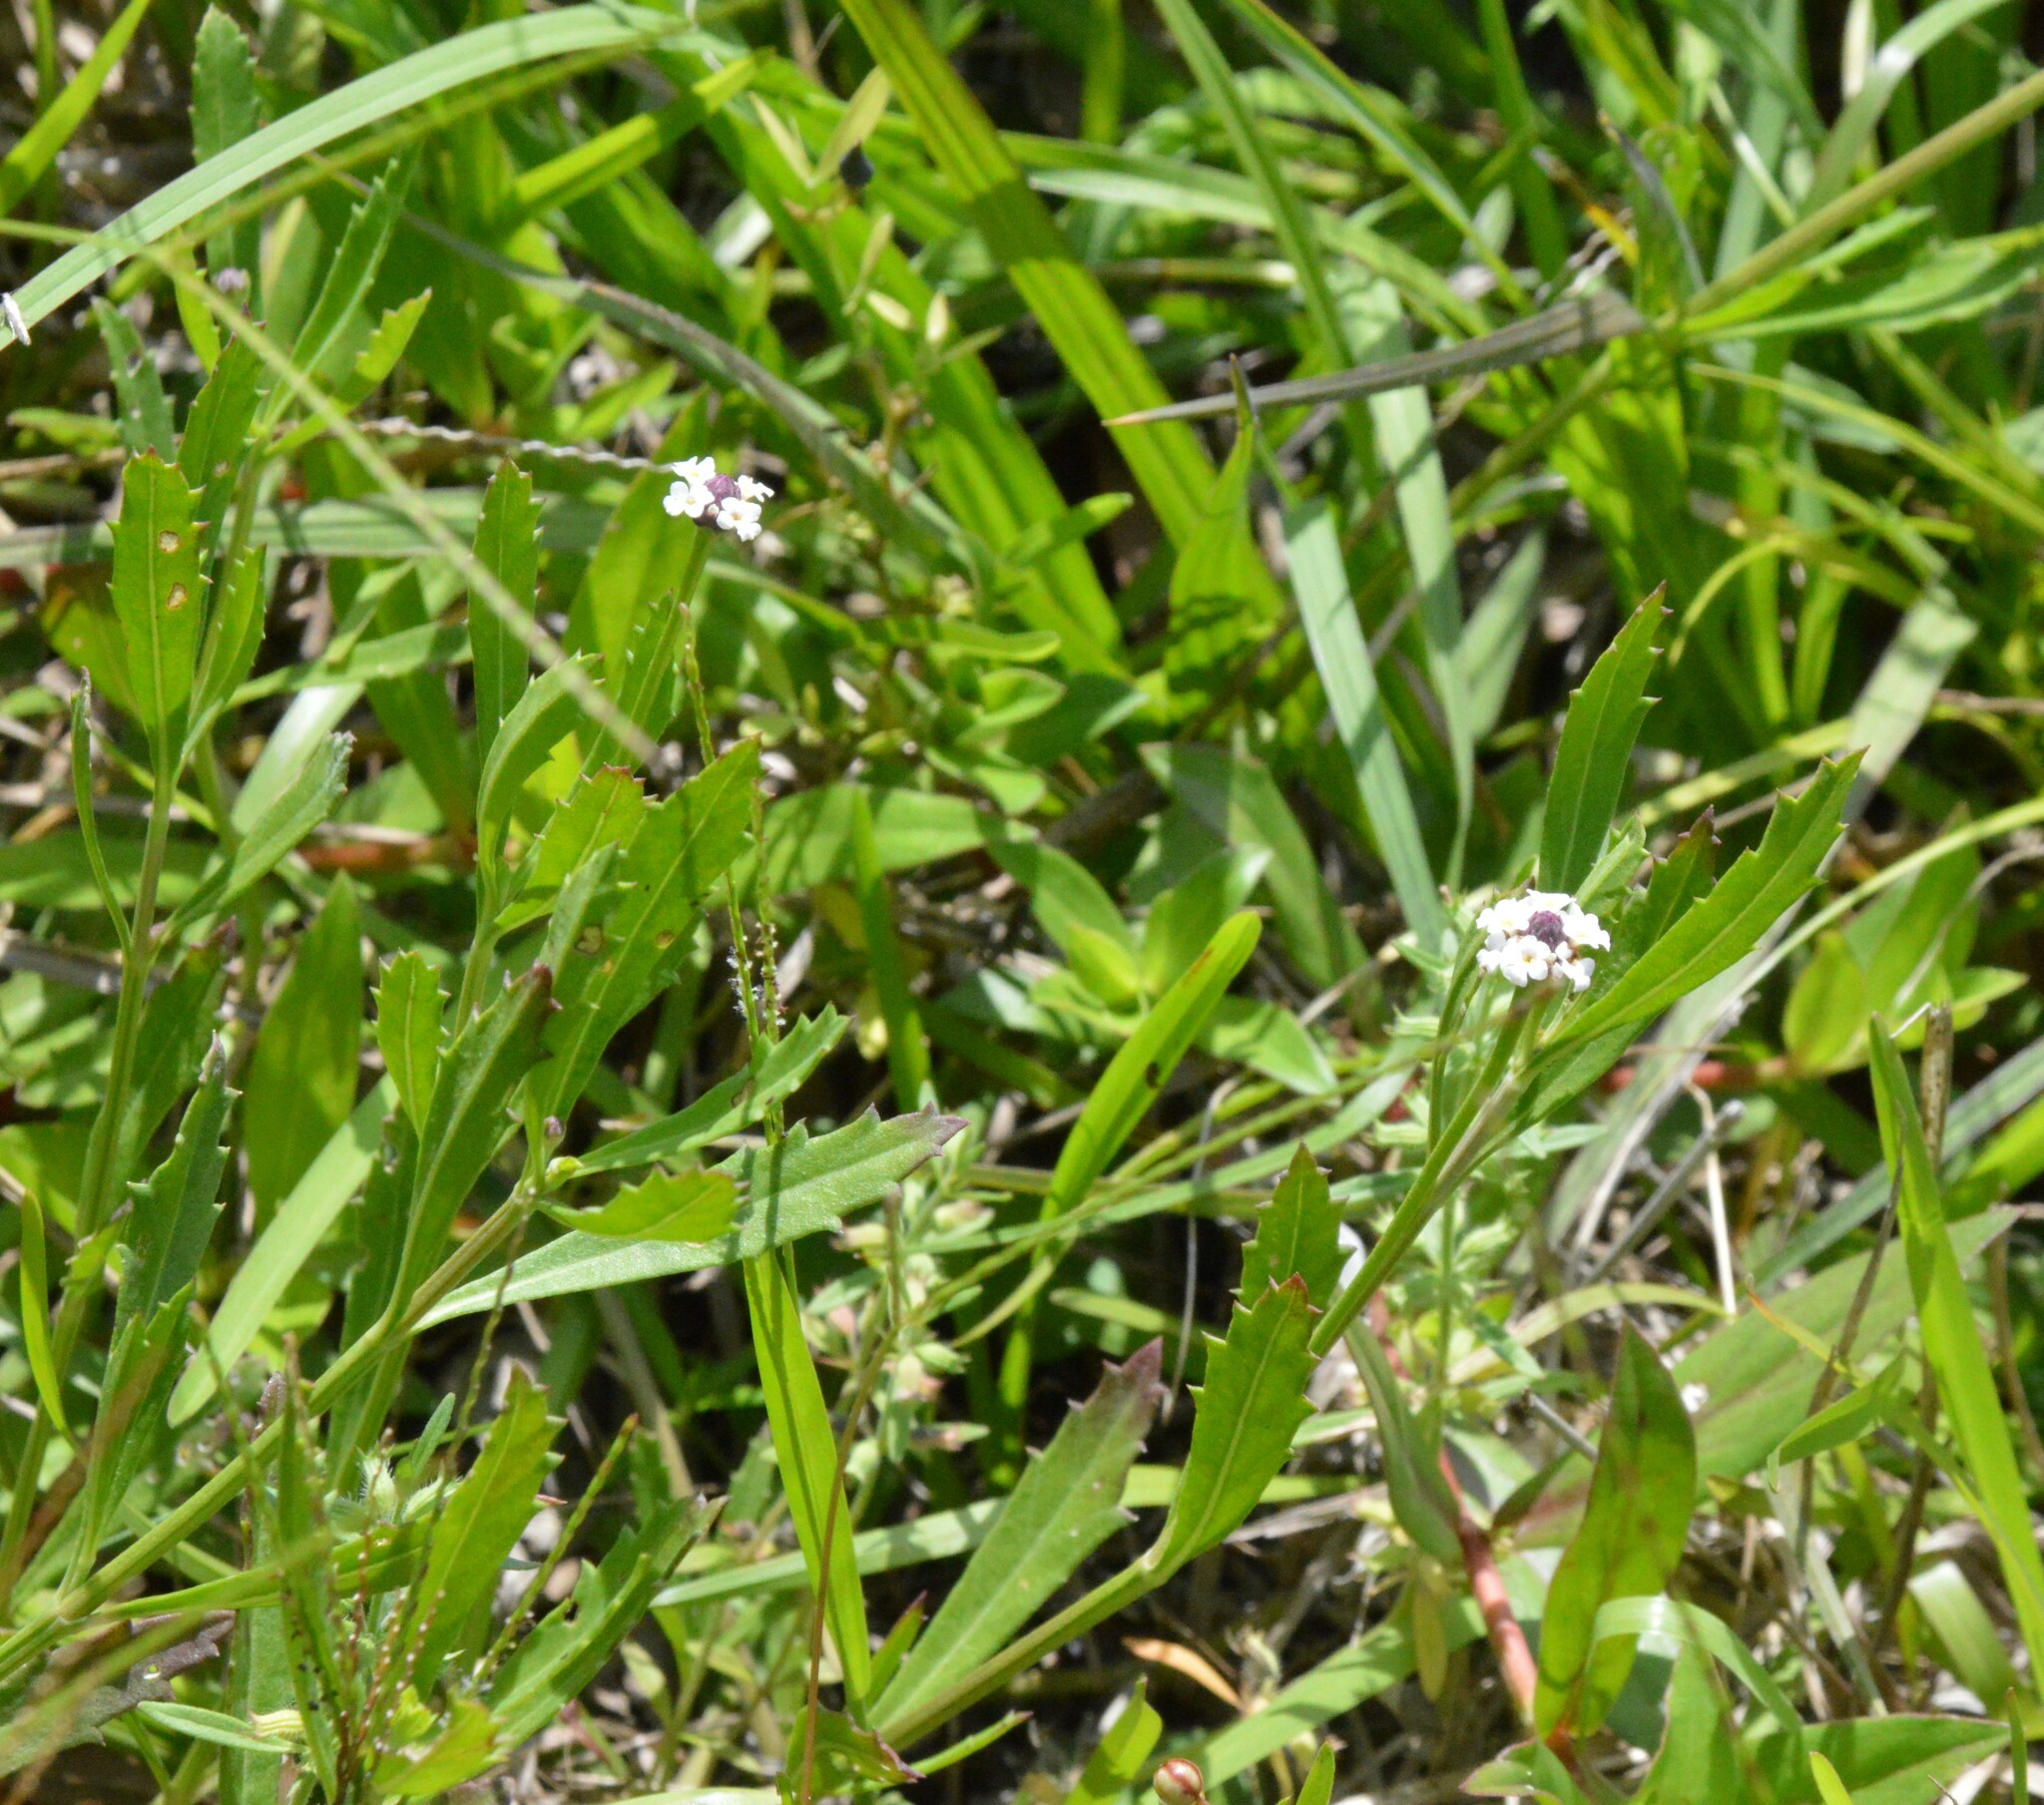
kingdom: Plantae
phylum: Tracheophyta
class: Magnoliopsida
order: Lamiales
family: Verbenaceae
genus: Phyla
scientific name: Phyla nodiflora
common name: Frogfruit
